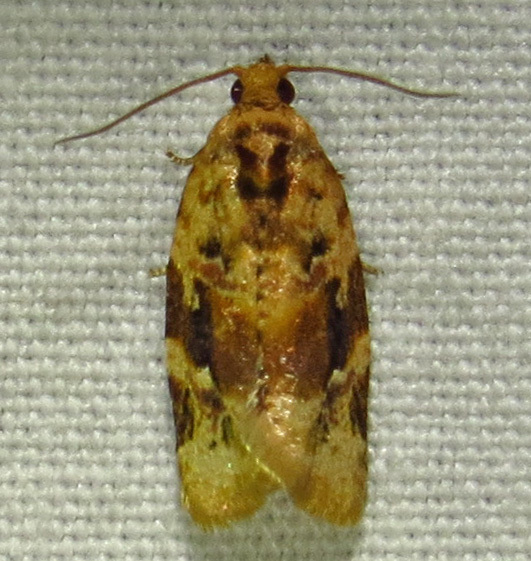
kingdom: Animalia
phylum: Arthropoda
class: Insecta
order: Lepidoptera
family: Tortricidae
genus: Argyrotaenia
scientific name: Argyrotaenia velutinana
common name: Red-banded leafroller moth
